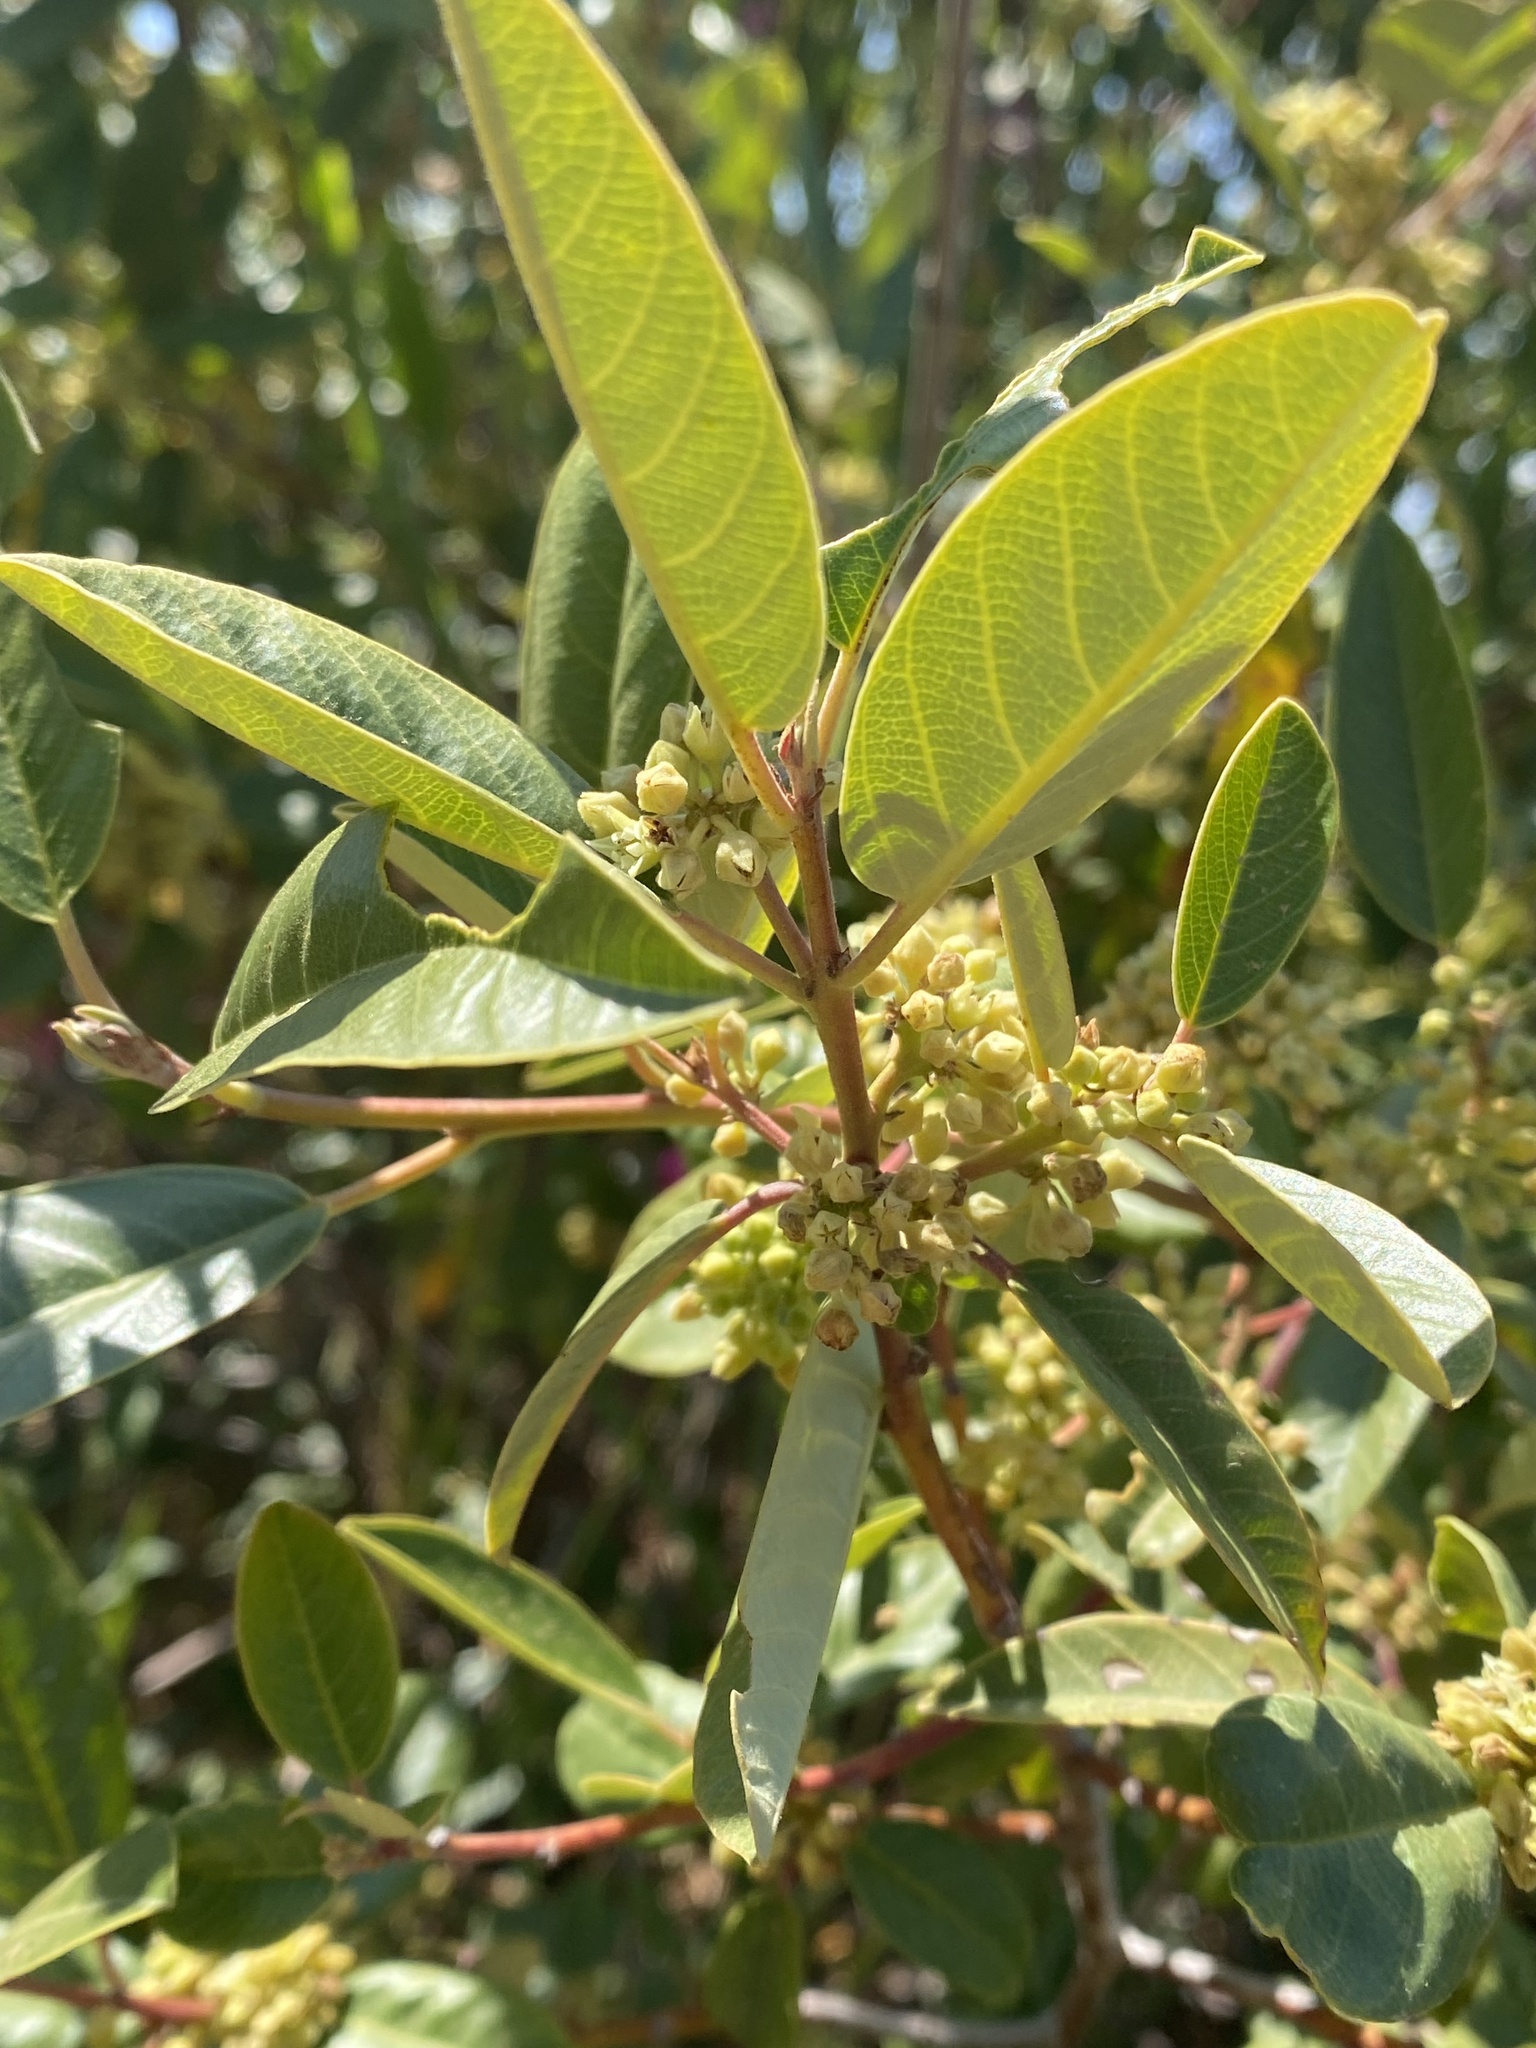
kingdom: Plantae
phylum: Tracheophyta
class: Magnoliopsida
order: Rosales
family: Rhamnaceae
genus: Frangula
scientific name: Frangula californica
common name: California buckthorn
